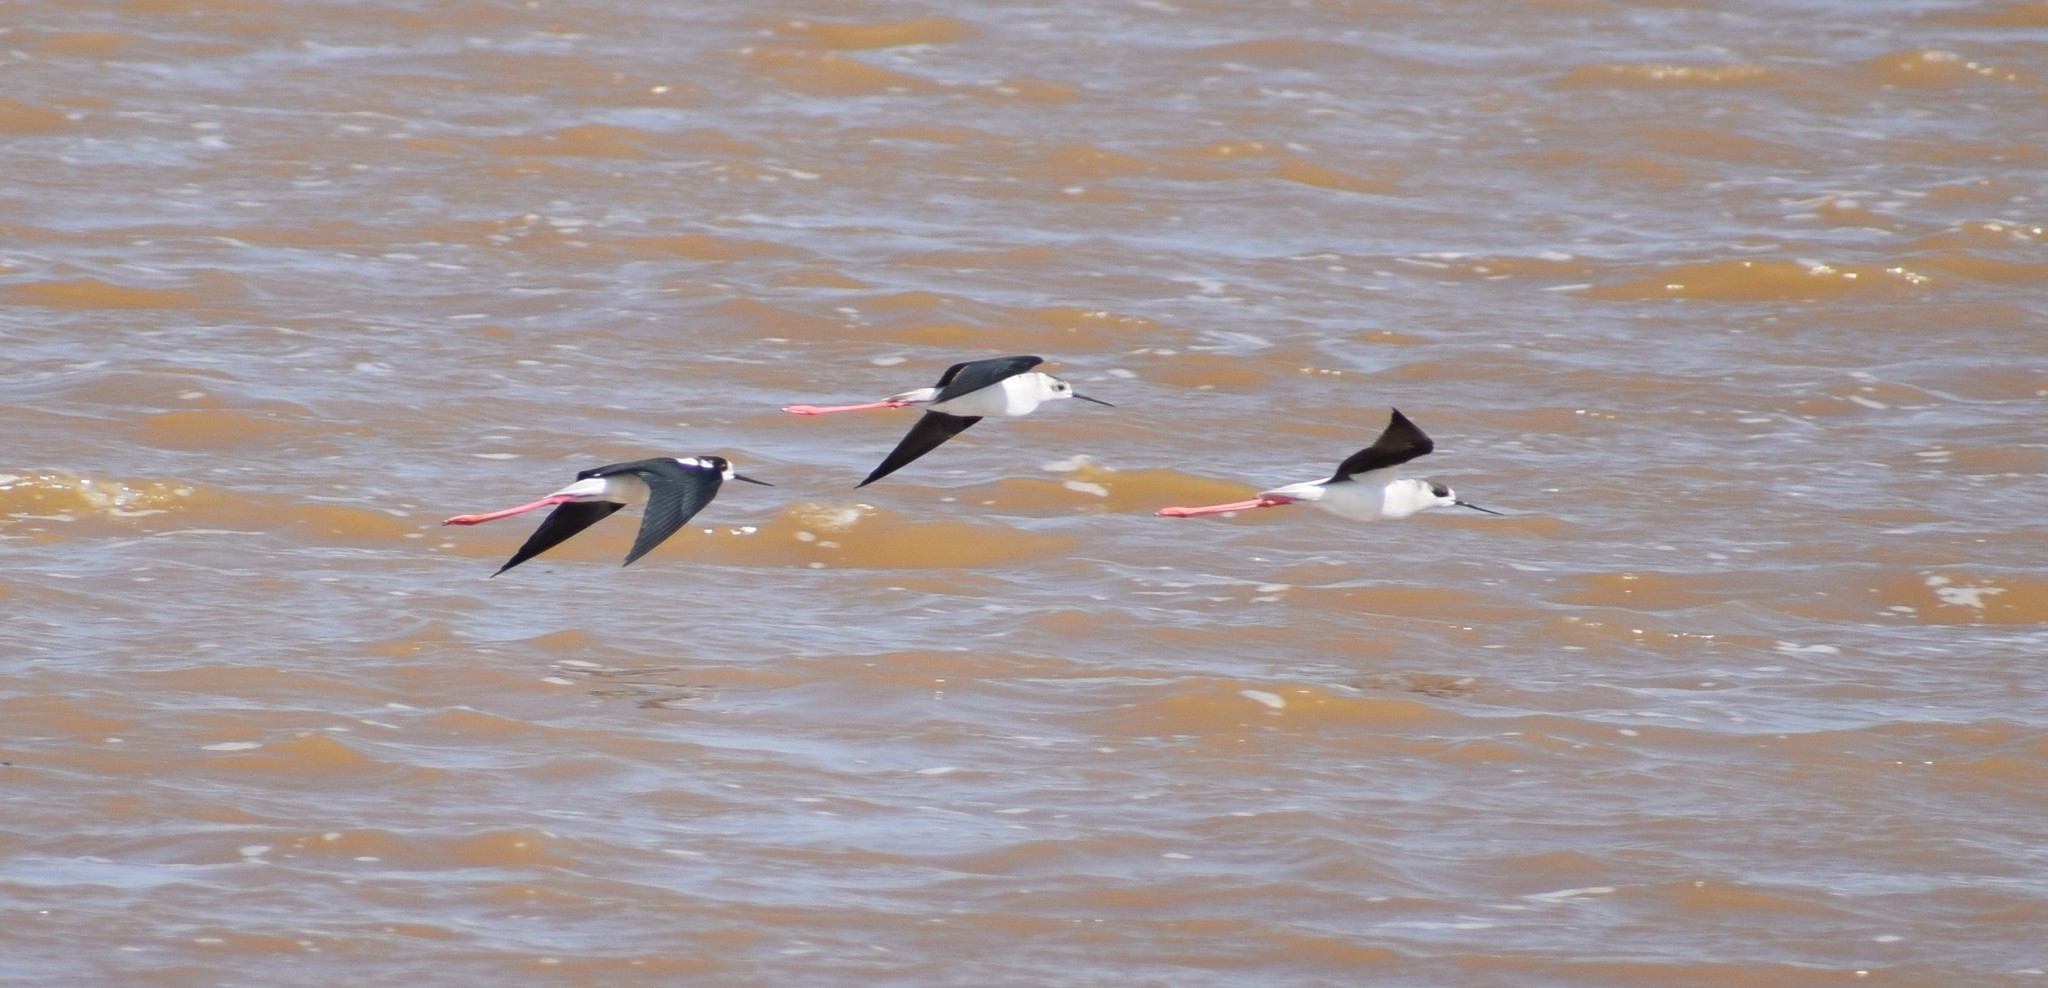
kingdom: Animalia
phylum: Chordata
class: Aves
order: Charadriiformes
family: Recurvirostridae
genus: Himantopus
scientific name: Himantopus himantopus
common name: Black-winged stilt
